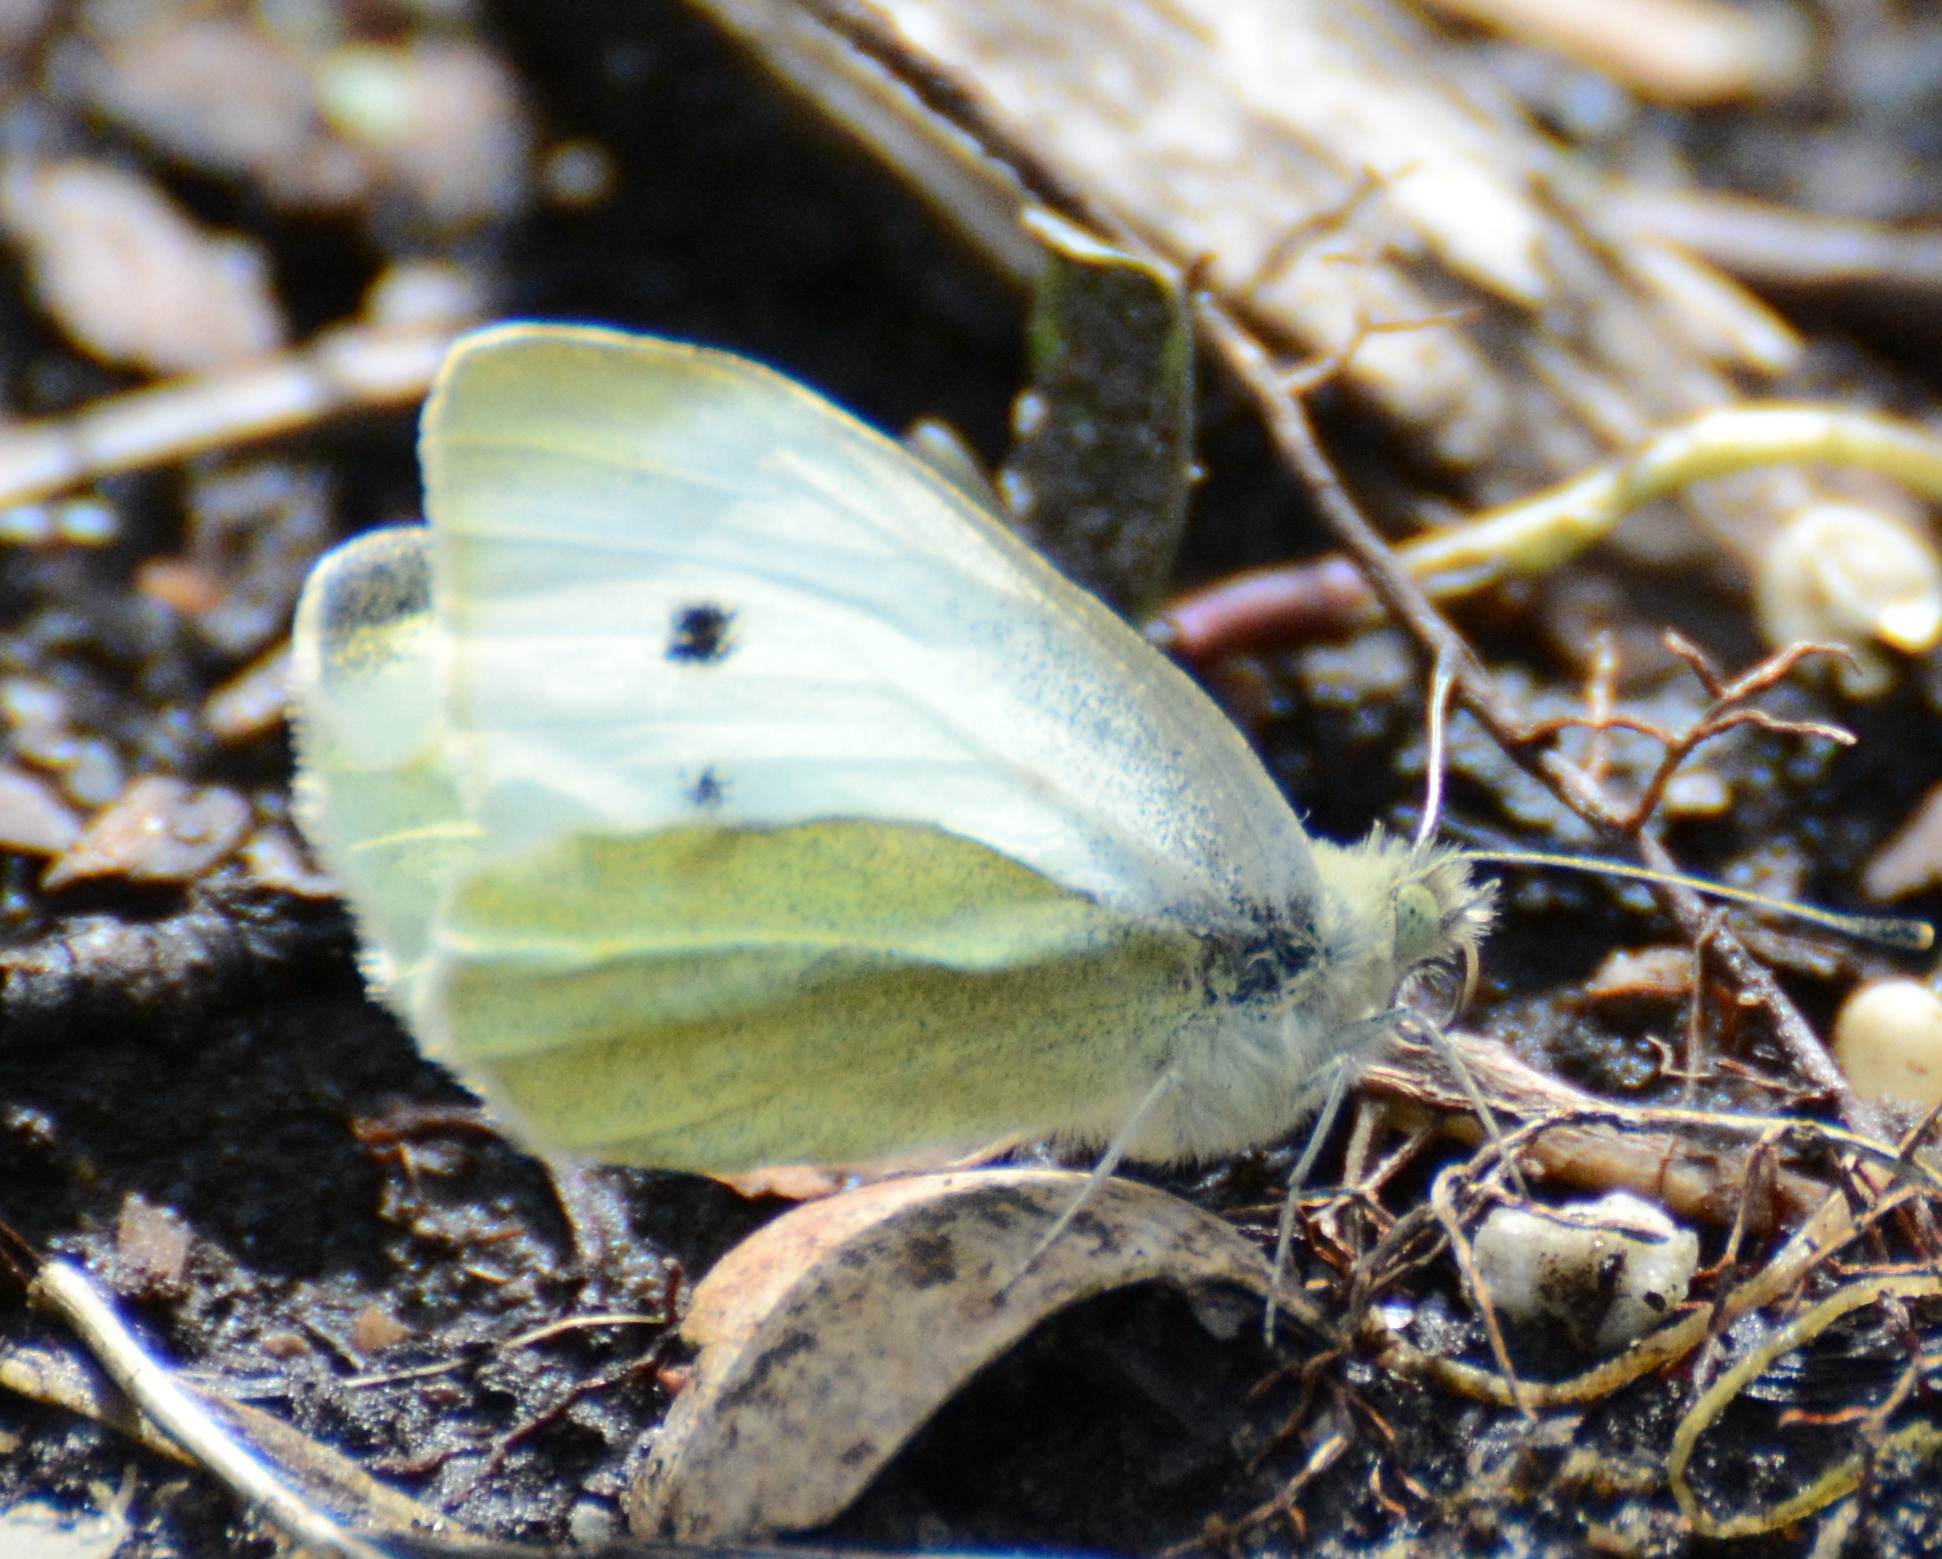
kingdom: Animalia
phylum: Arthropoda
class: Insecta
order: Lepidoptera
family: Pieridae
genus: Pieris
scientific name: Pieris rapae
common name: Small white
